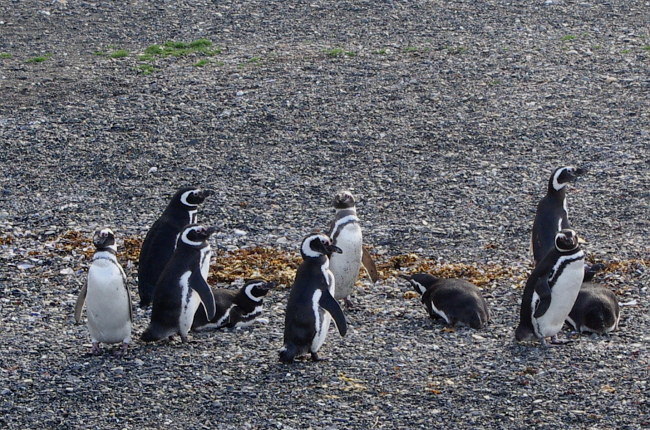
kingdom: Animalia
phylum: Chordata
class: Aves
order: Sphenisciformes
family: Spheniscidae
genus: Spheniscus
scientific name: Spheniscus magellanicus
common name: Magellanic penguin
